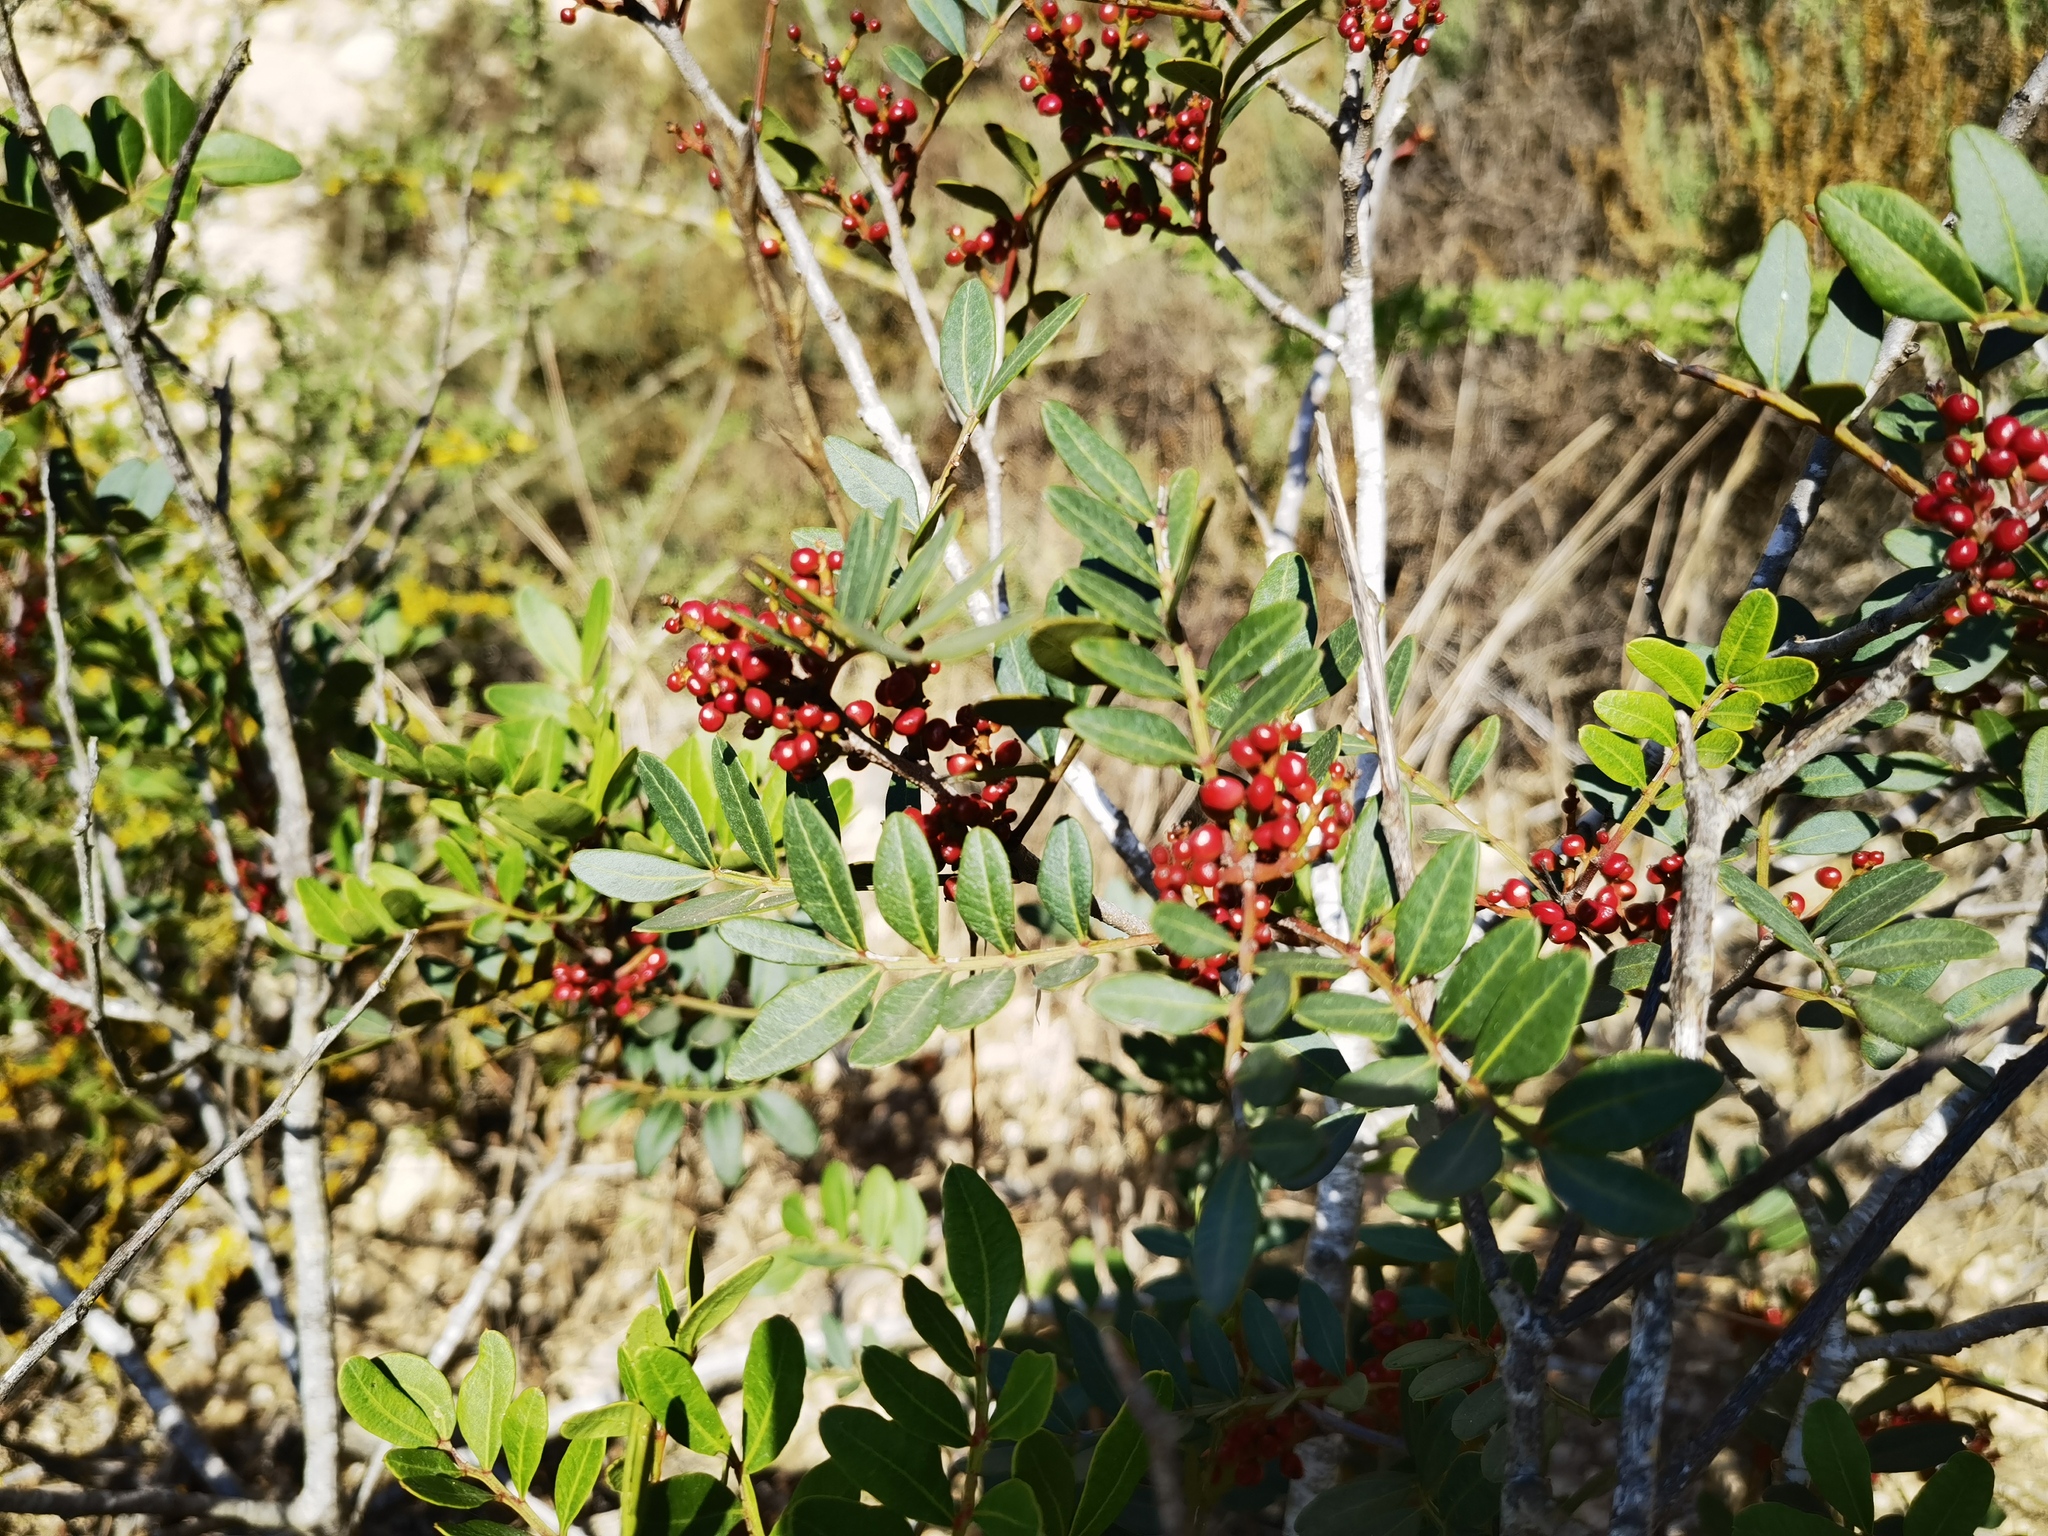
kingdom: Plantae
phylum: Tracheophyta
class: Magnoliopsida
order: Sapindales
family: Anacardiaceae
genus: Pistacia
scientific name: Pistacia lentiscus
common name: Lentisk
